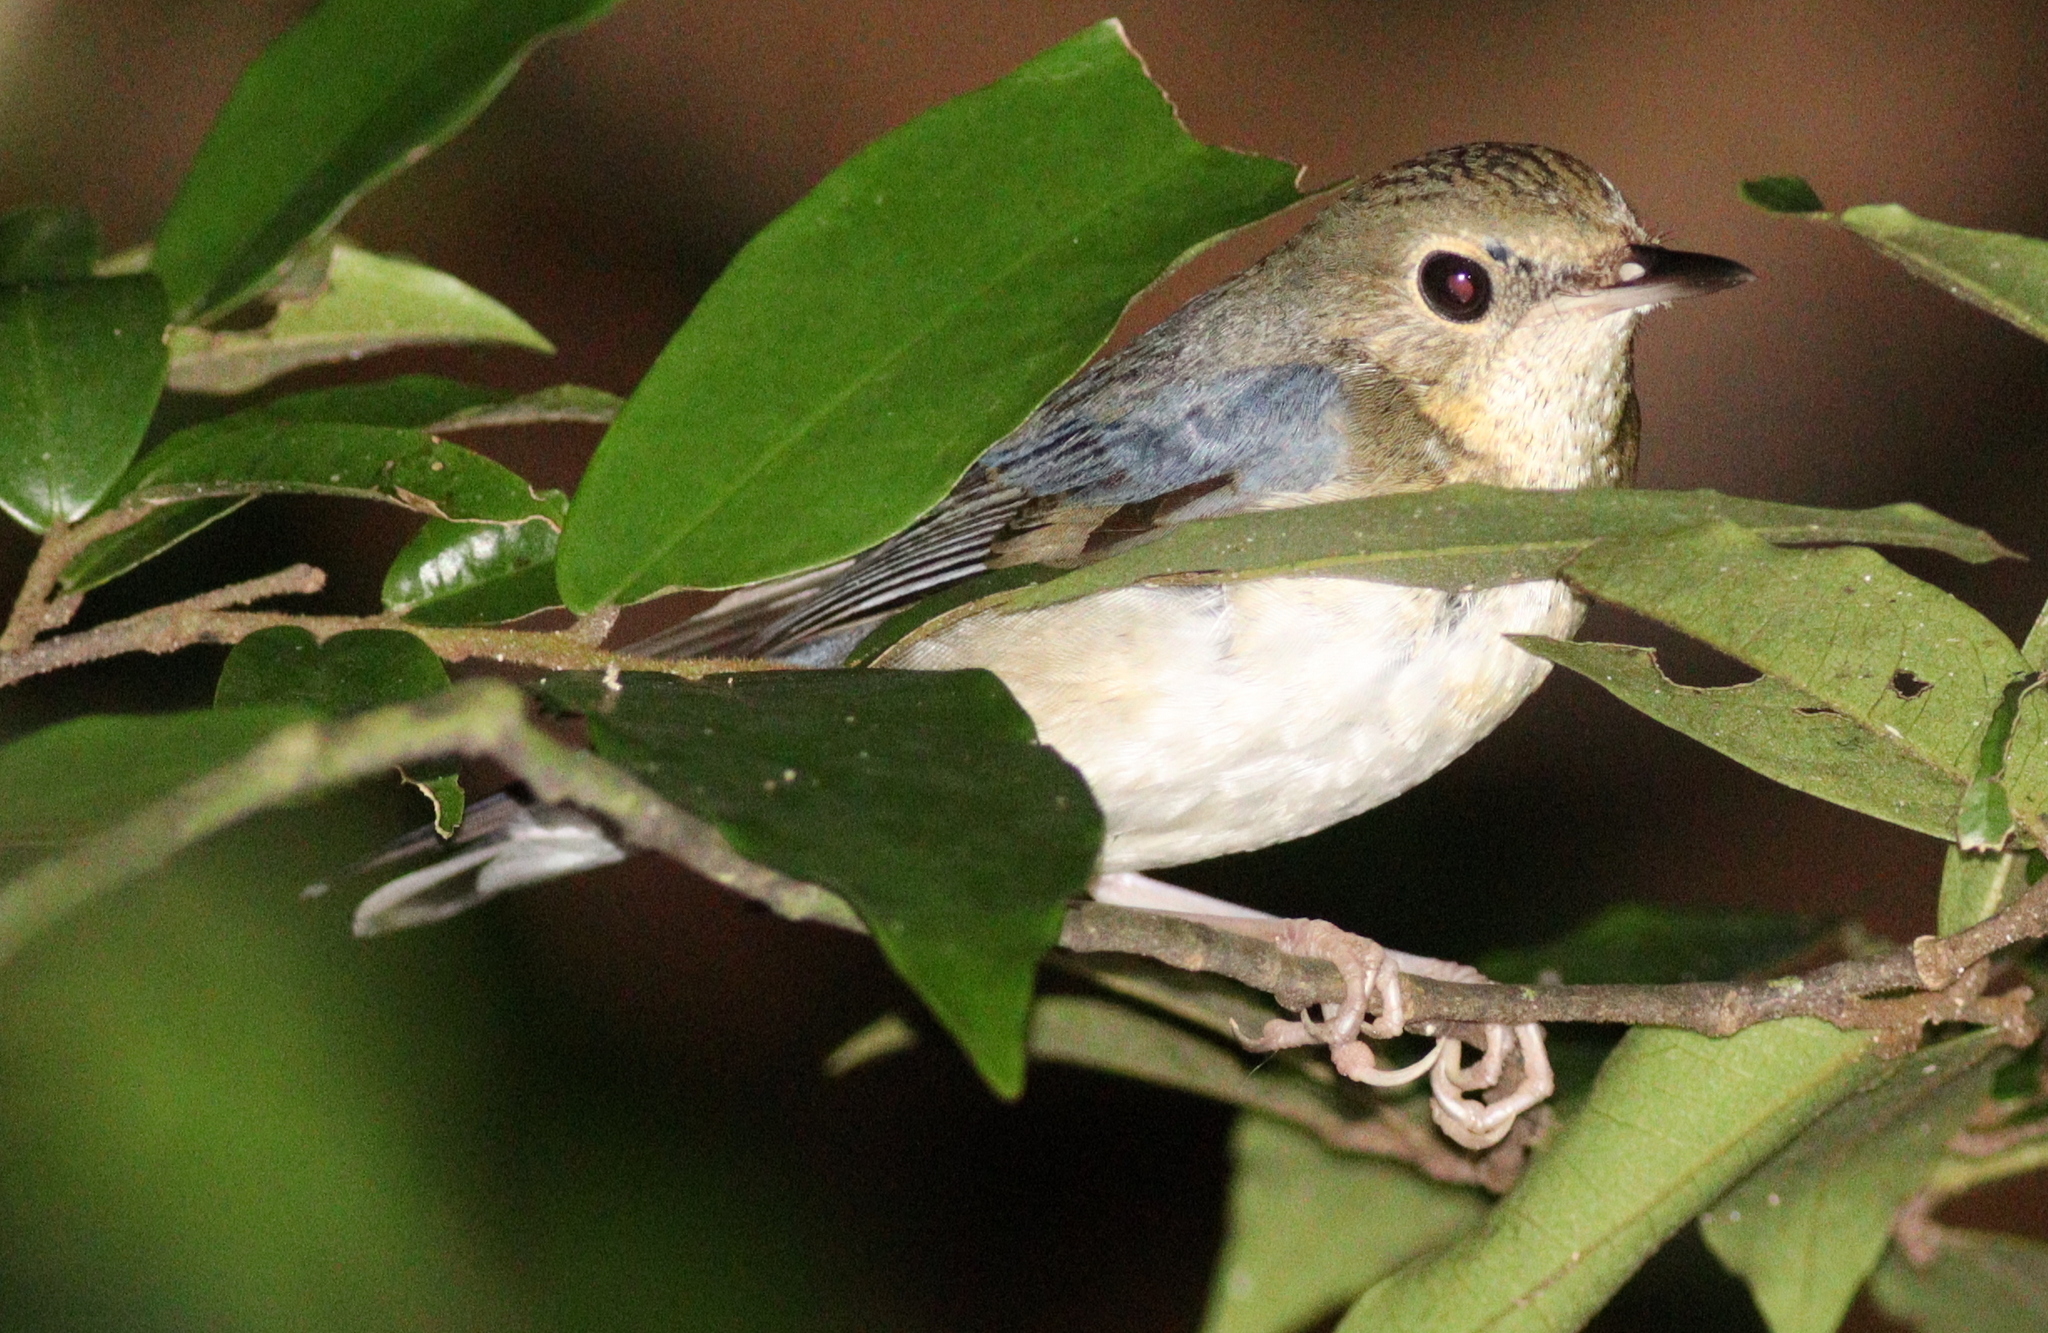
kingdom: Animalia
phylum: Chordata
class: Aves
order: Passeriformes
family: Muscicapidae
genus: Luscinia
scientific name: Luscinia cyane
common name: Siberian blue robin
